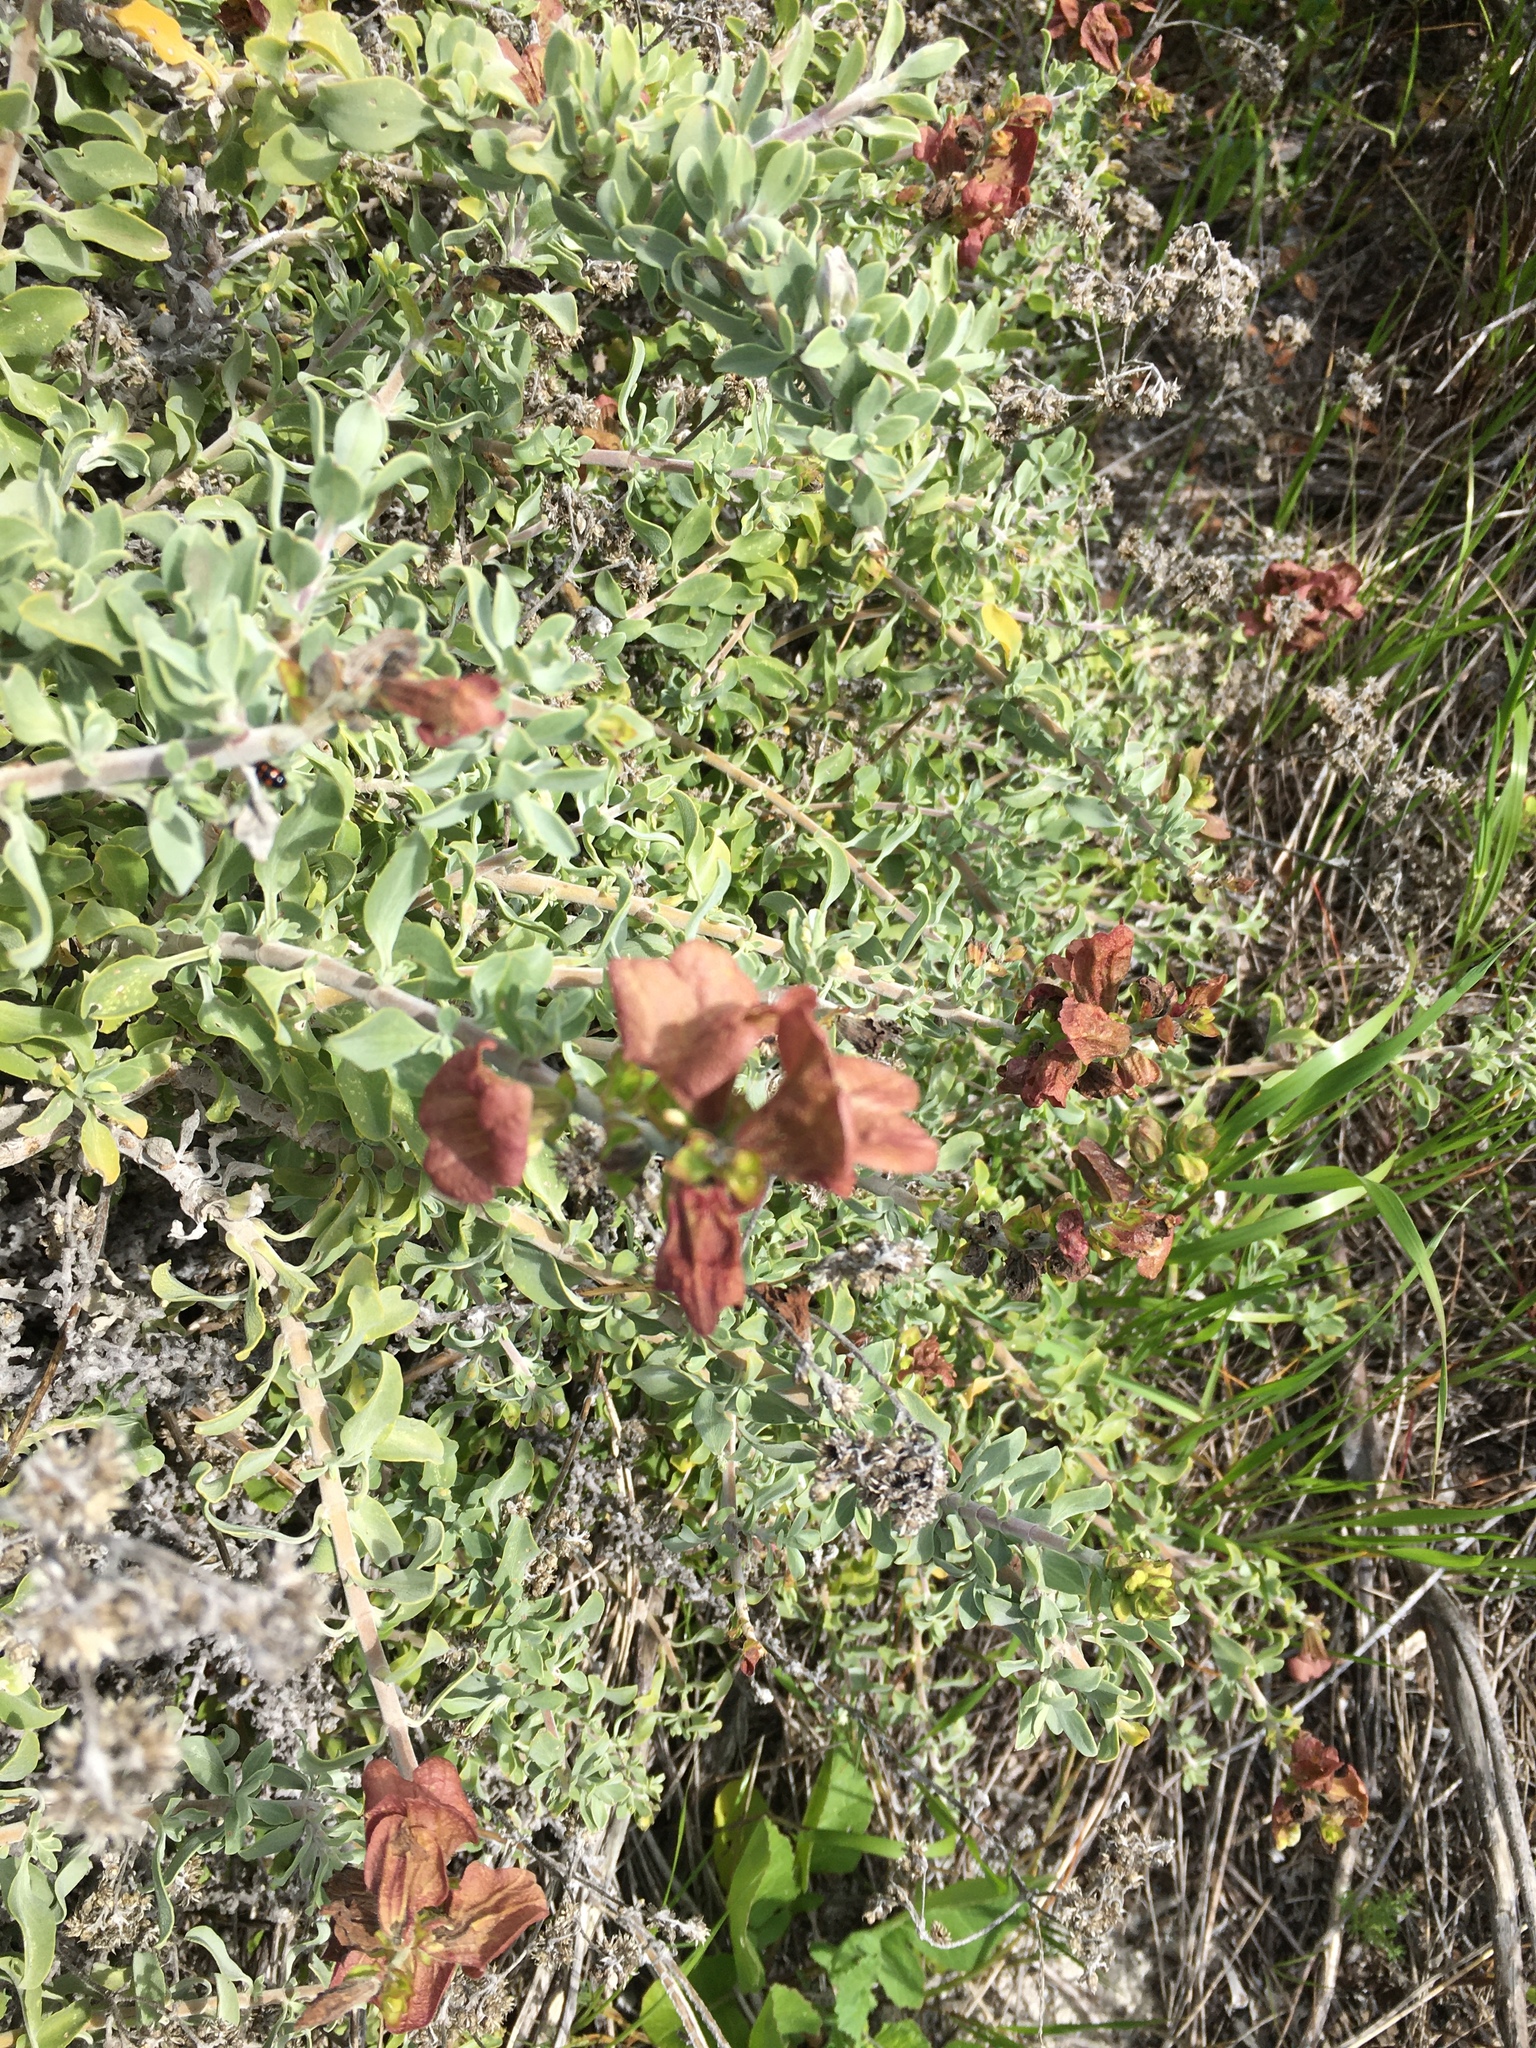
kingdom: Plantae
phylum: Tracheophyta
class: Magnoliopsida
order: Lamiales
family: Lamiaceae
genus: Salvia
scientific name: Salvia aurea
